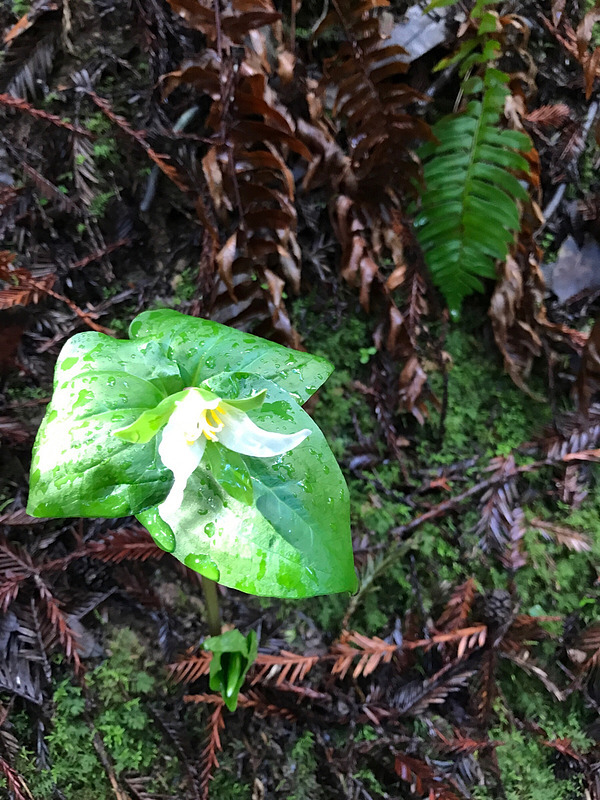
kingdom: Plantae
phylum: Tracheophyta
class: Liliopsida
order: Liliales
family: Melanthiaceae
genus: Trillium
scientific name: Trillium ovatum
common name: Pacific trillium
